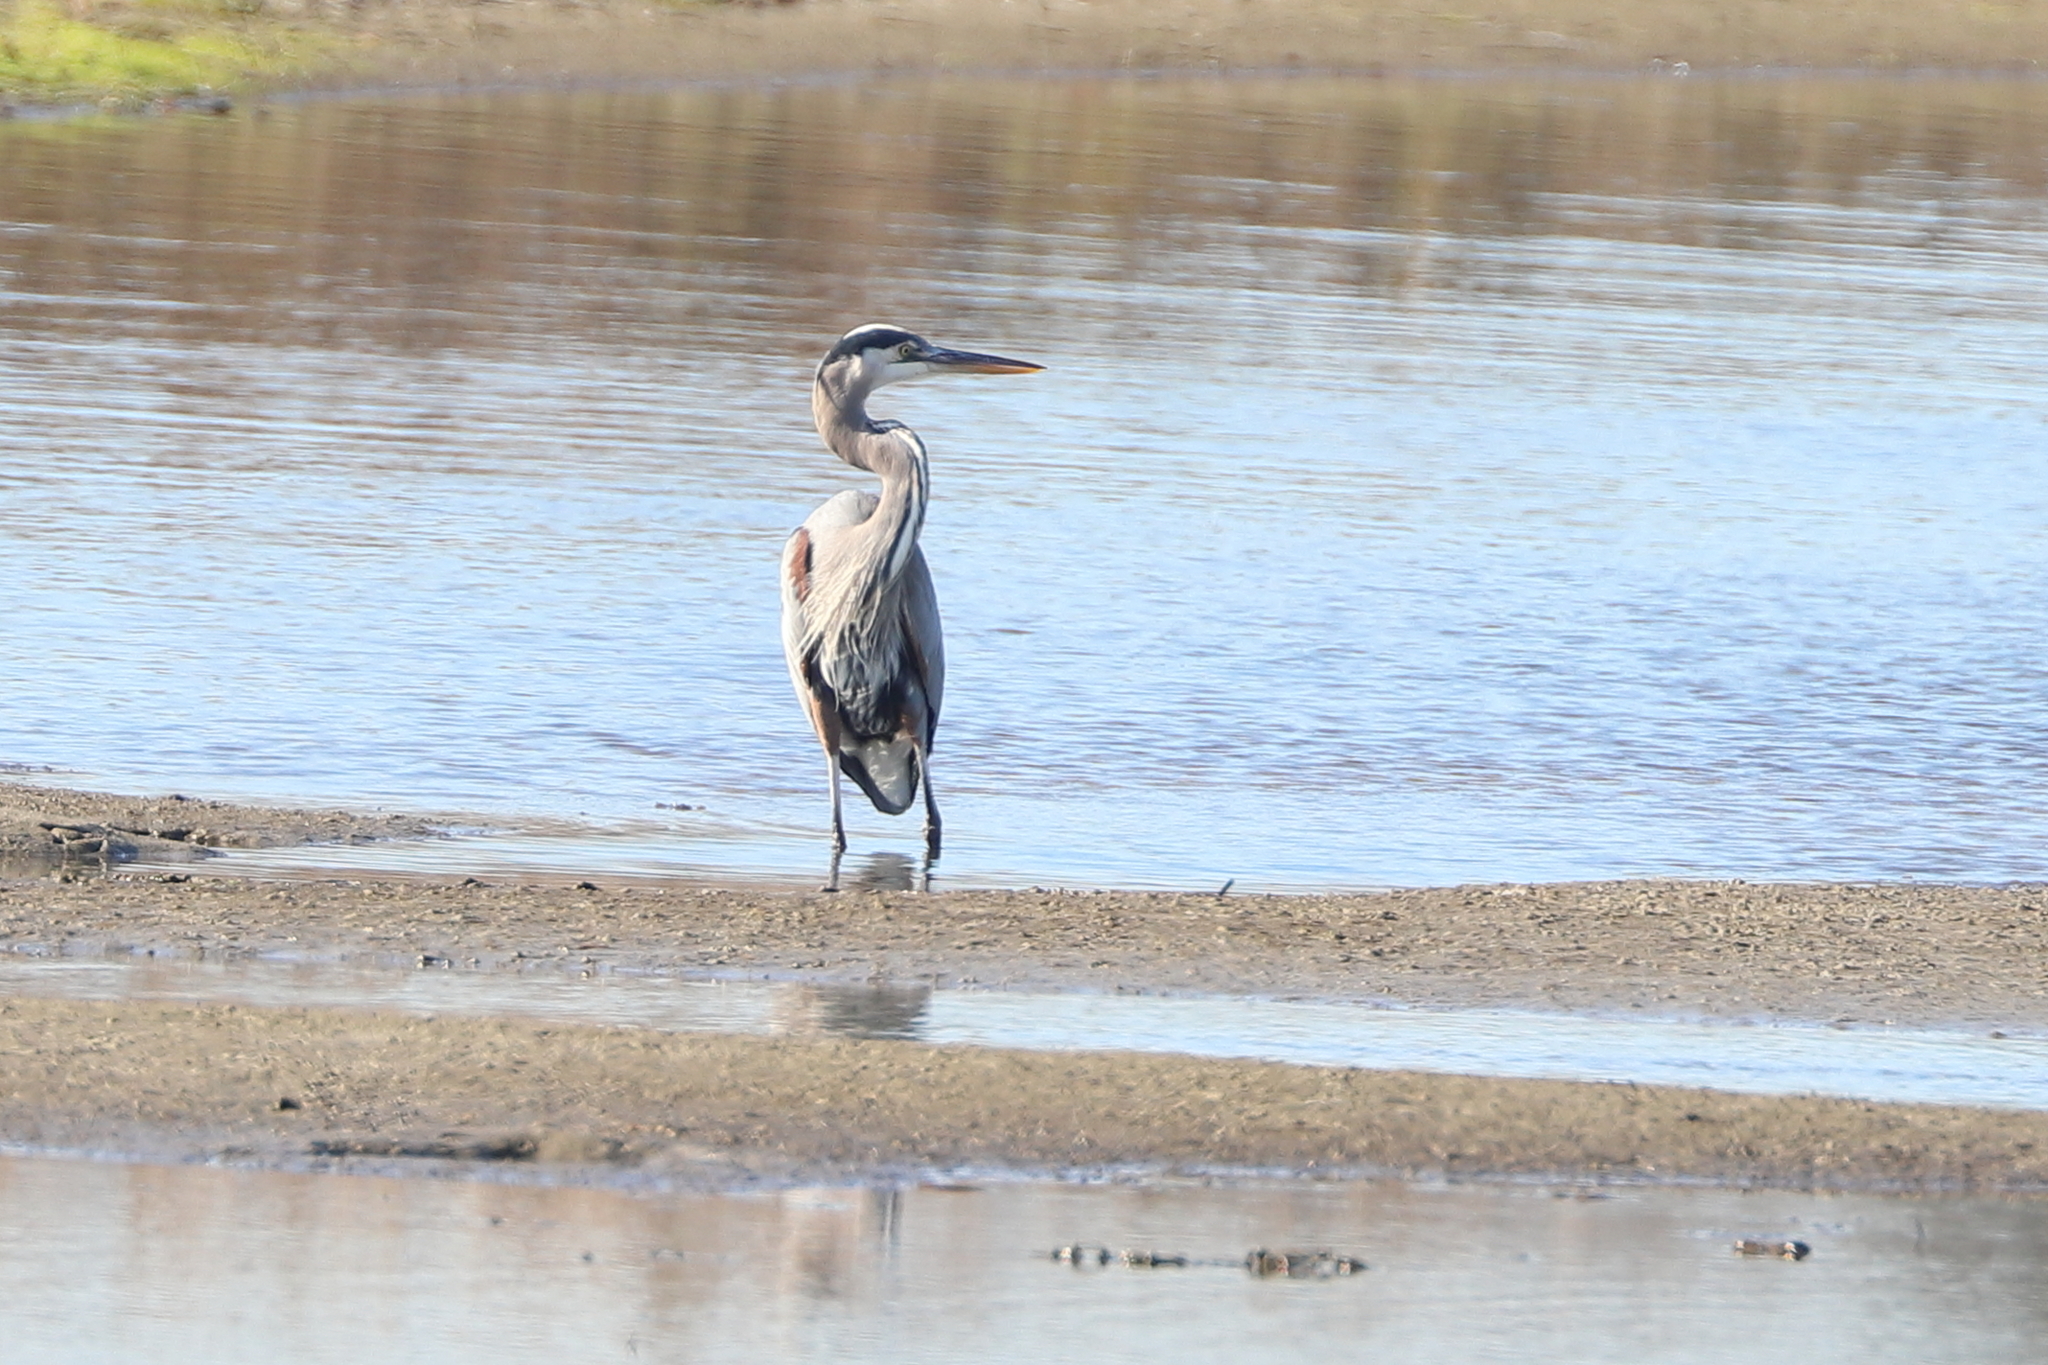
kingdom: Animalia
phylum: Chordata
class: Aves
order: Pelecaniformes
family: Ardeidae
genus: Ardea
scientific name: Ardea herodias
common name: Great blue heron
